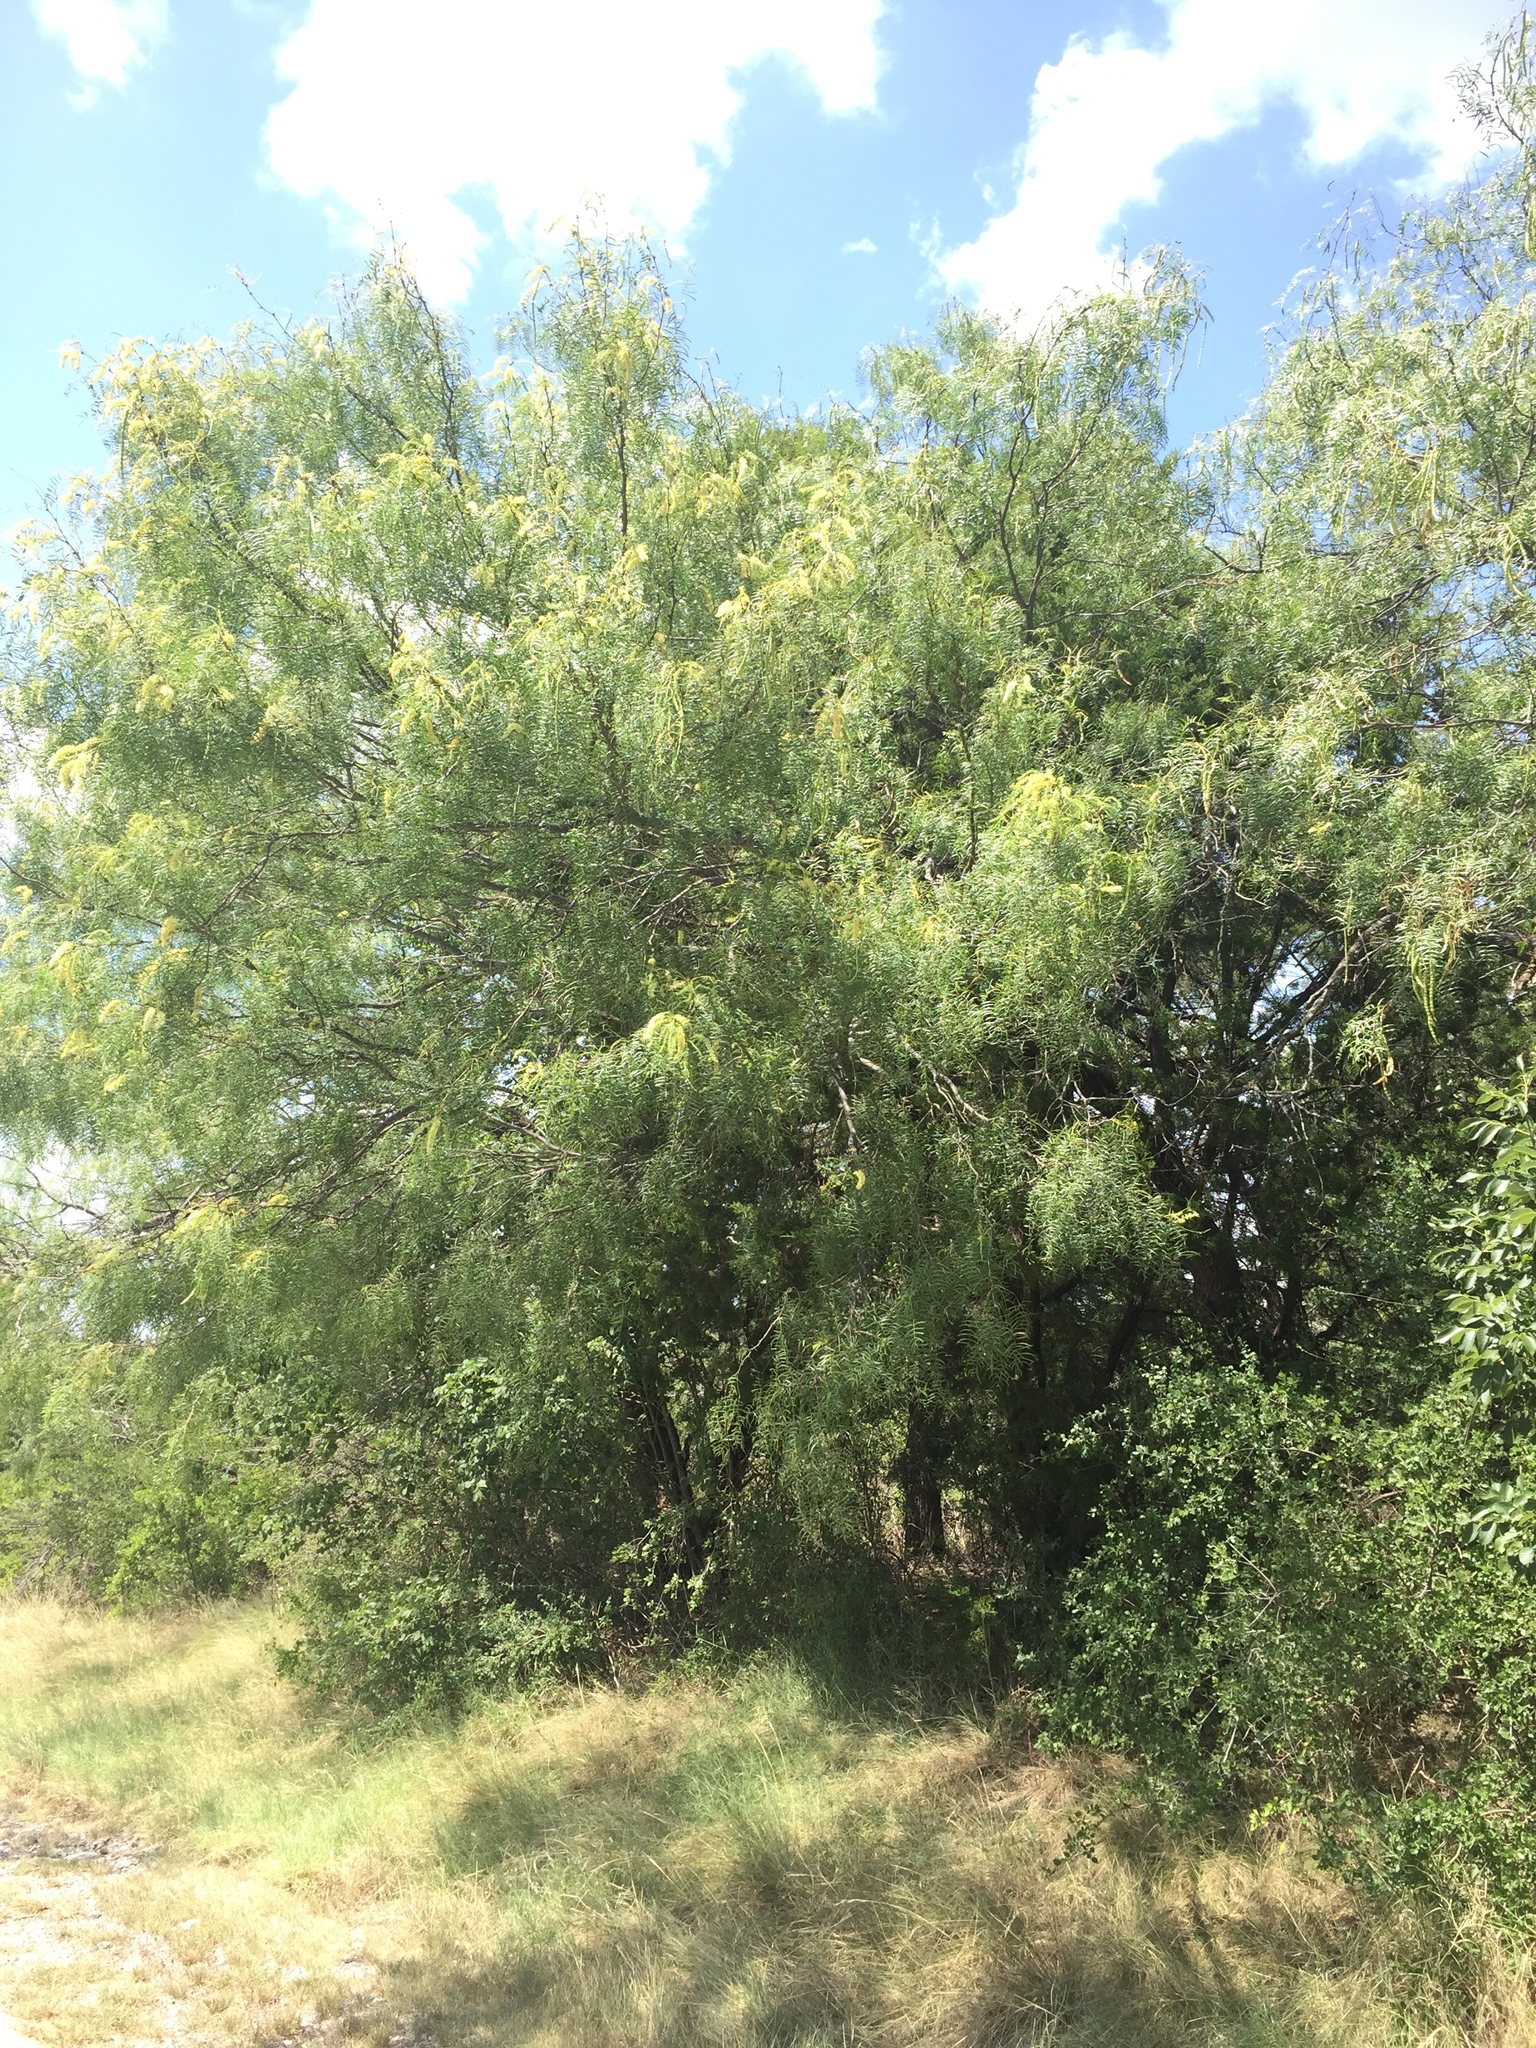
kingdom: Plantae
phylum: Tracheophyta
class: Magnoliopsida
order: Fabales
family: Fabaceae
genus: Prosopis
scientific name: Prosopis glandulosa
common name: Honey mesquite
